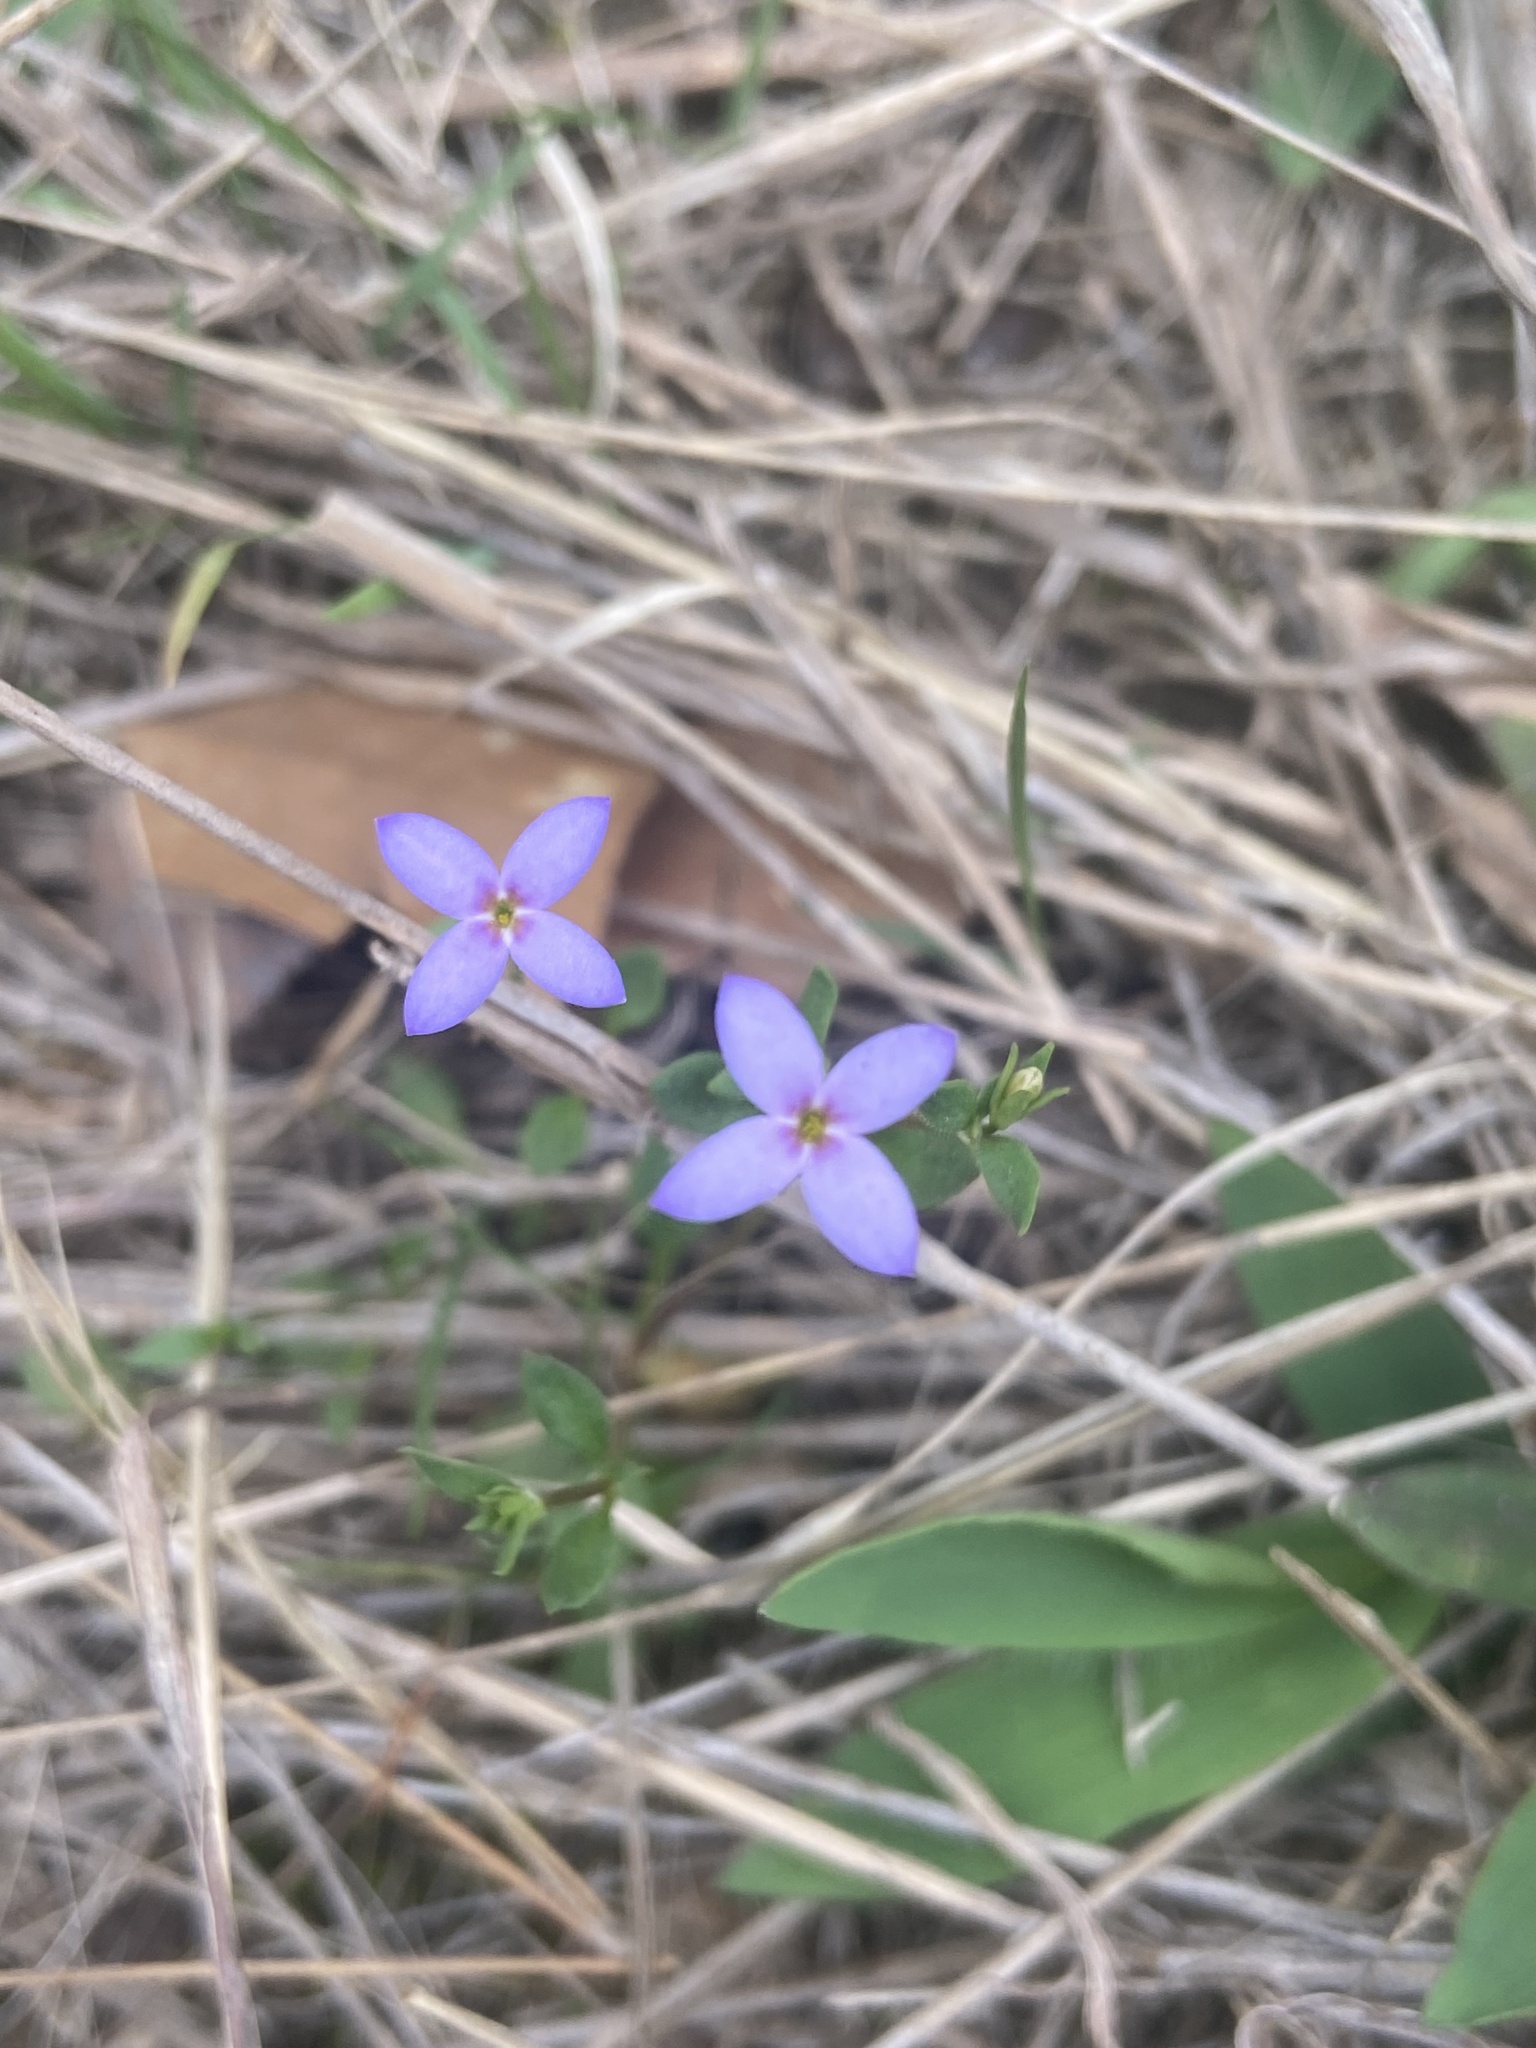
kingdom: Plantae
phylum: Tracheophyta
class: Magnoliopsida
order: Gentianales
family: Rubiaceae
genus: Houstonia
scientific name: Houstonia pusilla
